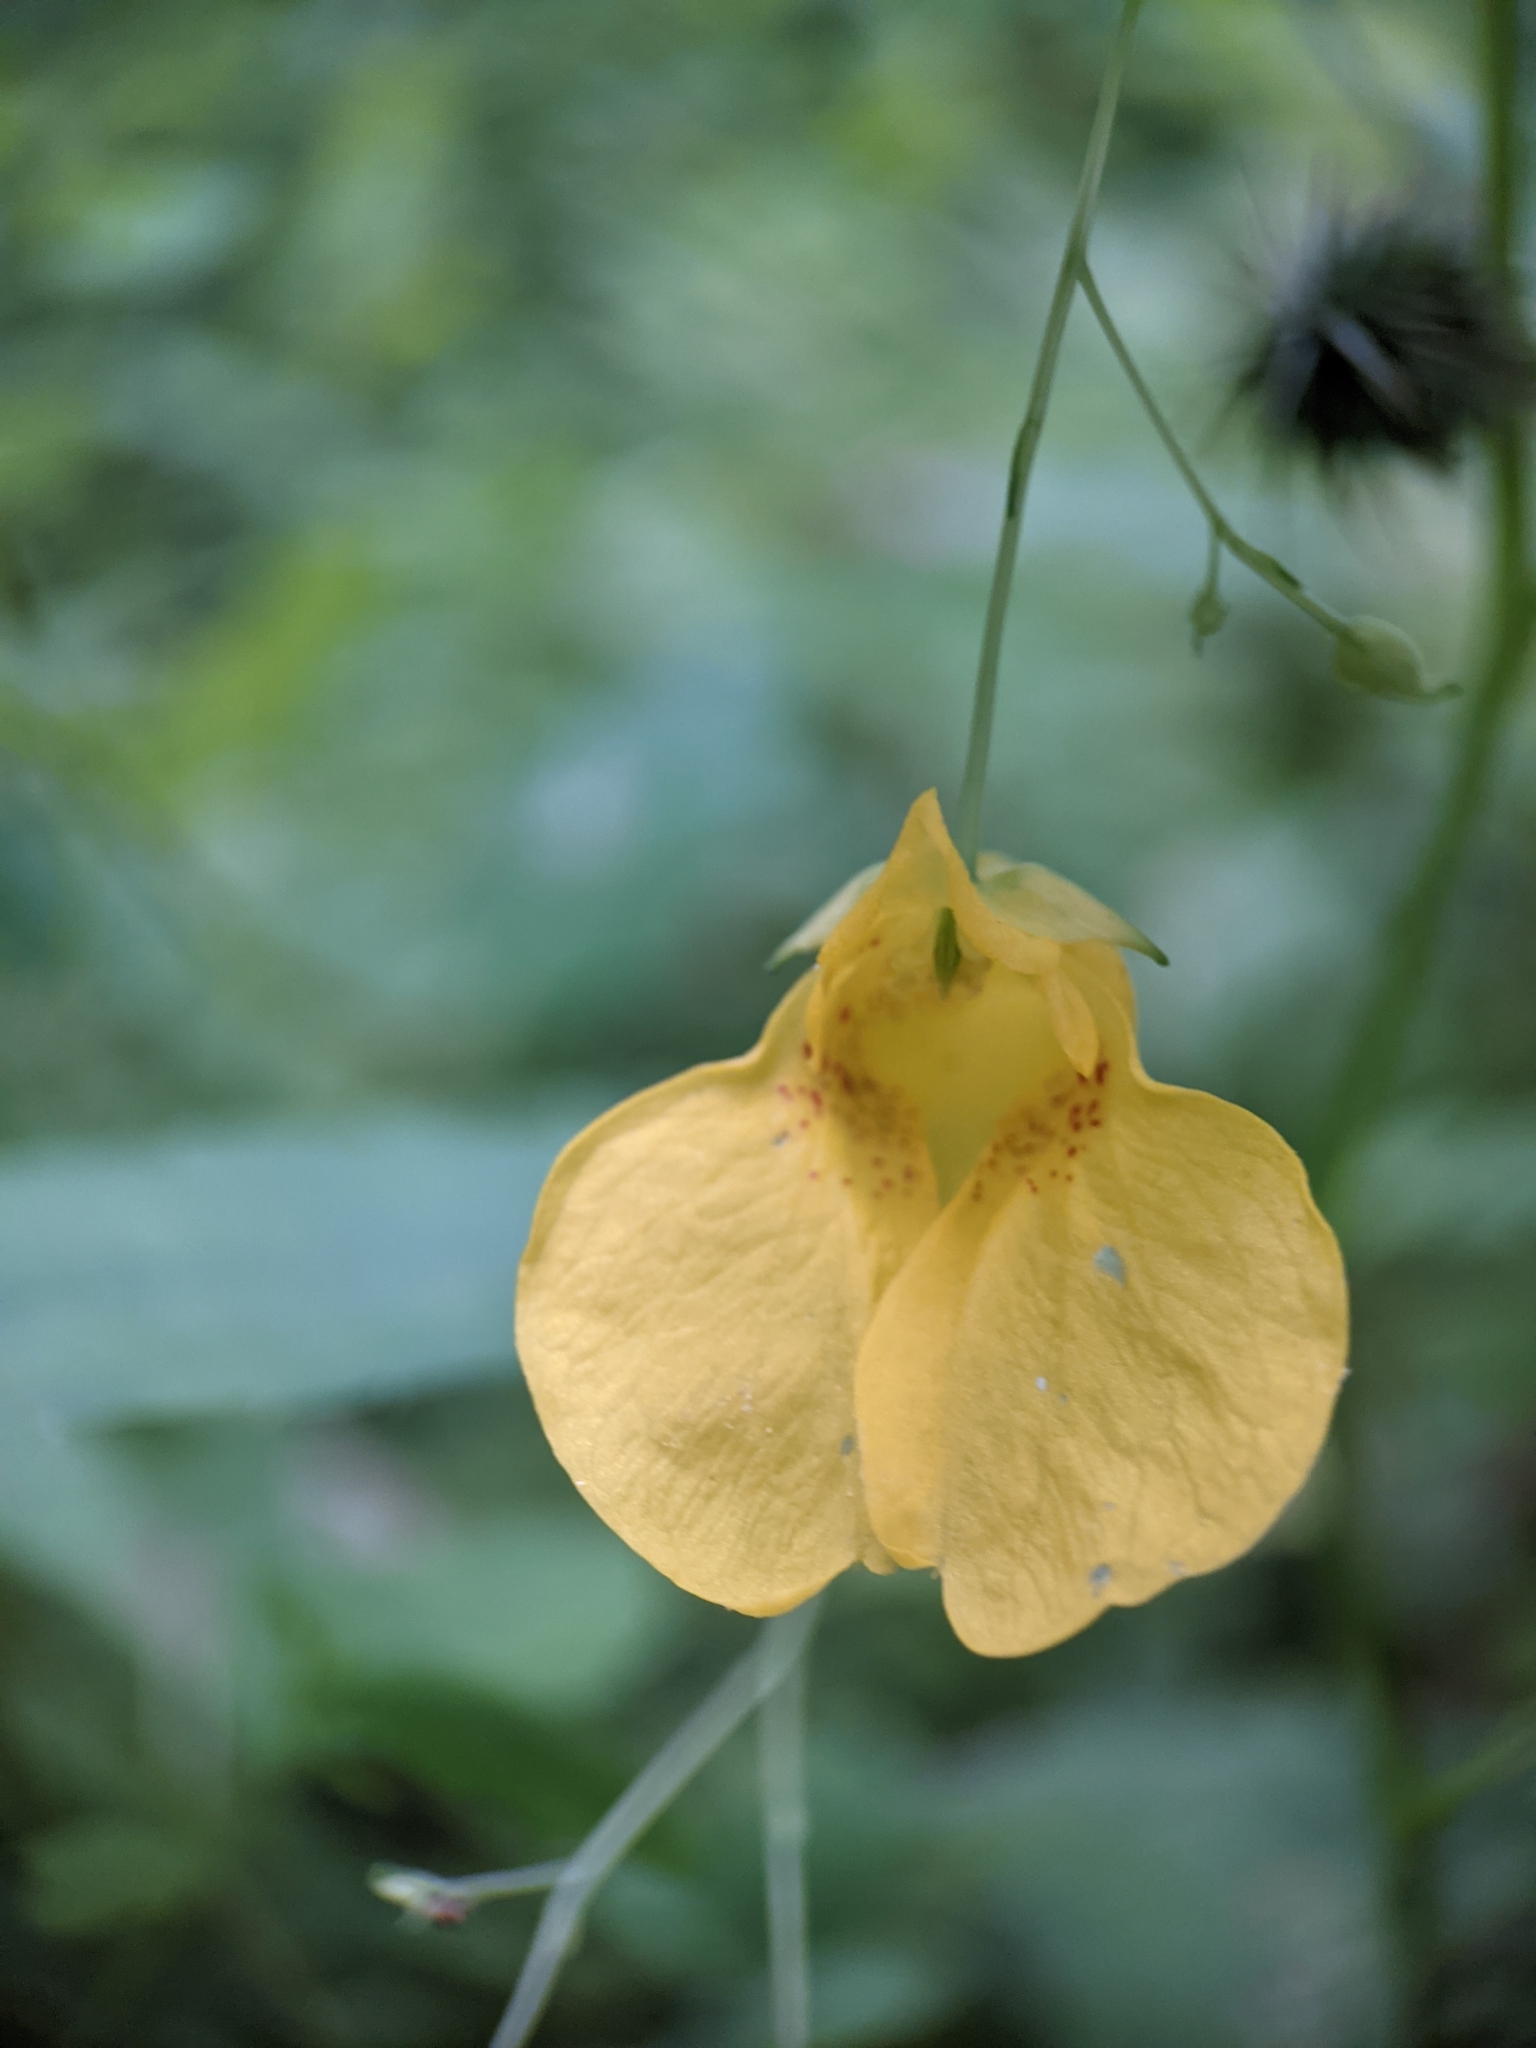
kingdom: Plantae
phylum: Tracheophyta
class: Magnoliopsida
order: Ericales
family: Balsaminaceae
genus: Impatiens
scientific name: Impatiens noli-tangere
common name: Touch-me-not balsam
